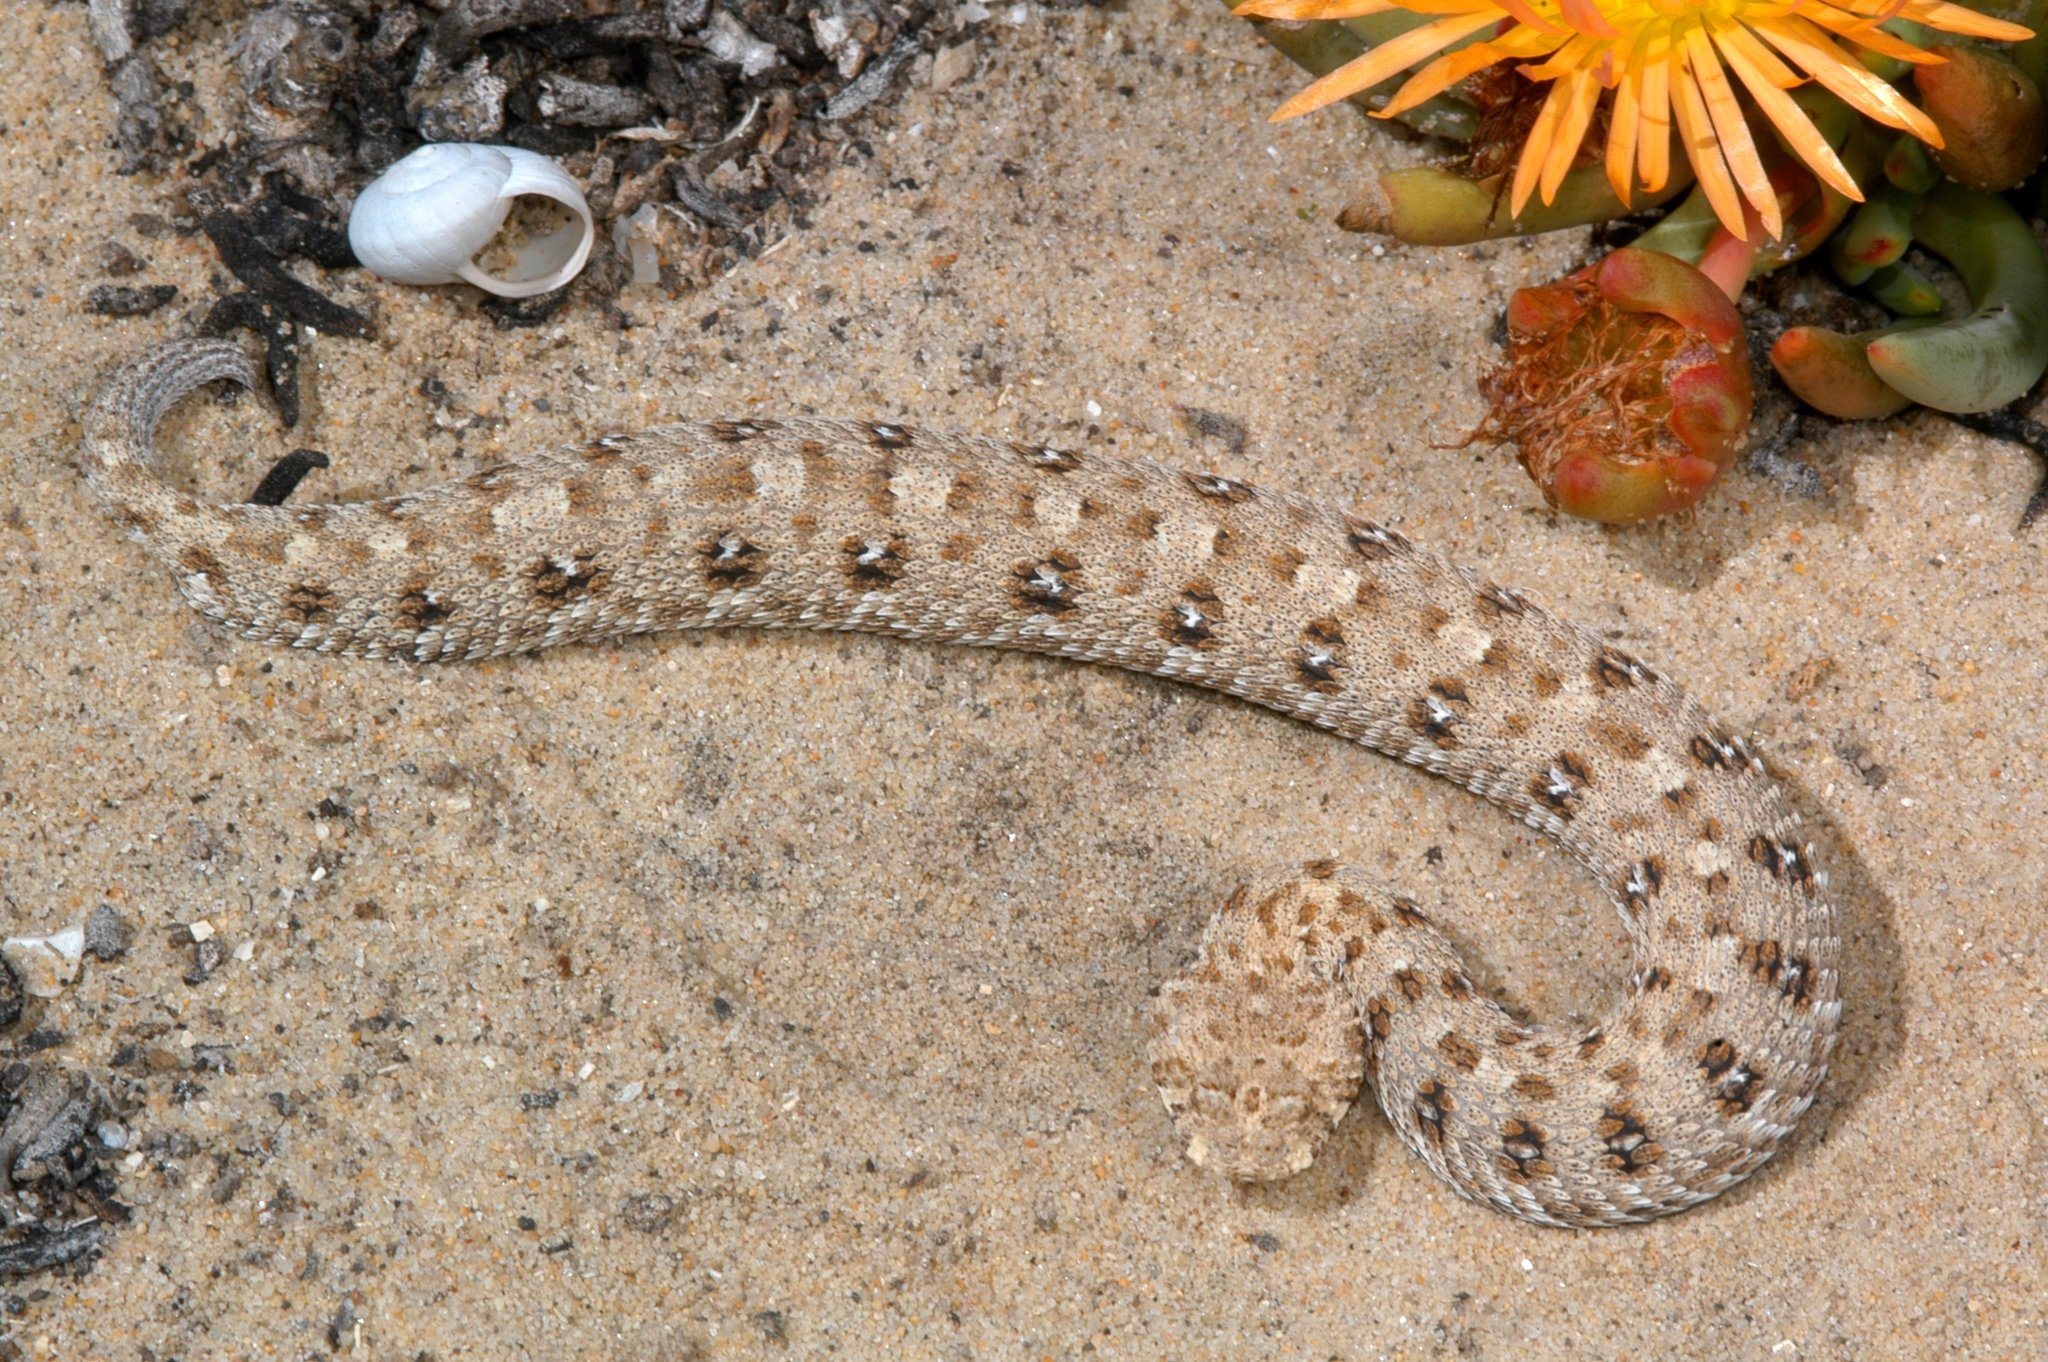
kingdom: Animalia
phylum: Chordata
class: Squamata
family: Viperidae
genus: Bitis
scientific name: Bitis schneideri
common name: Namaqua dwarf adder
